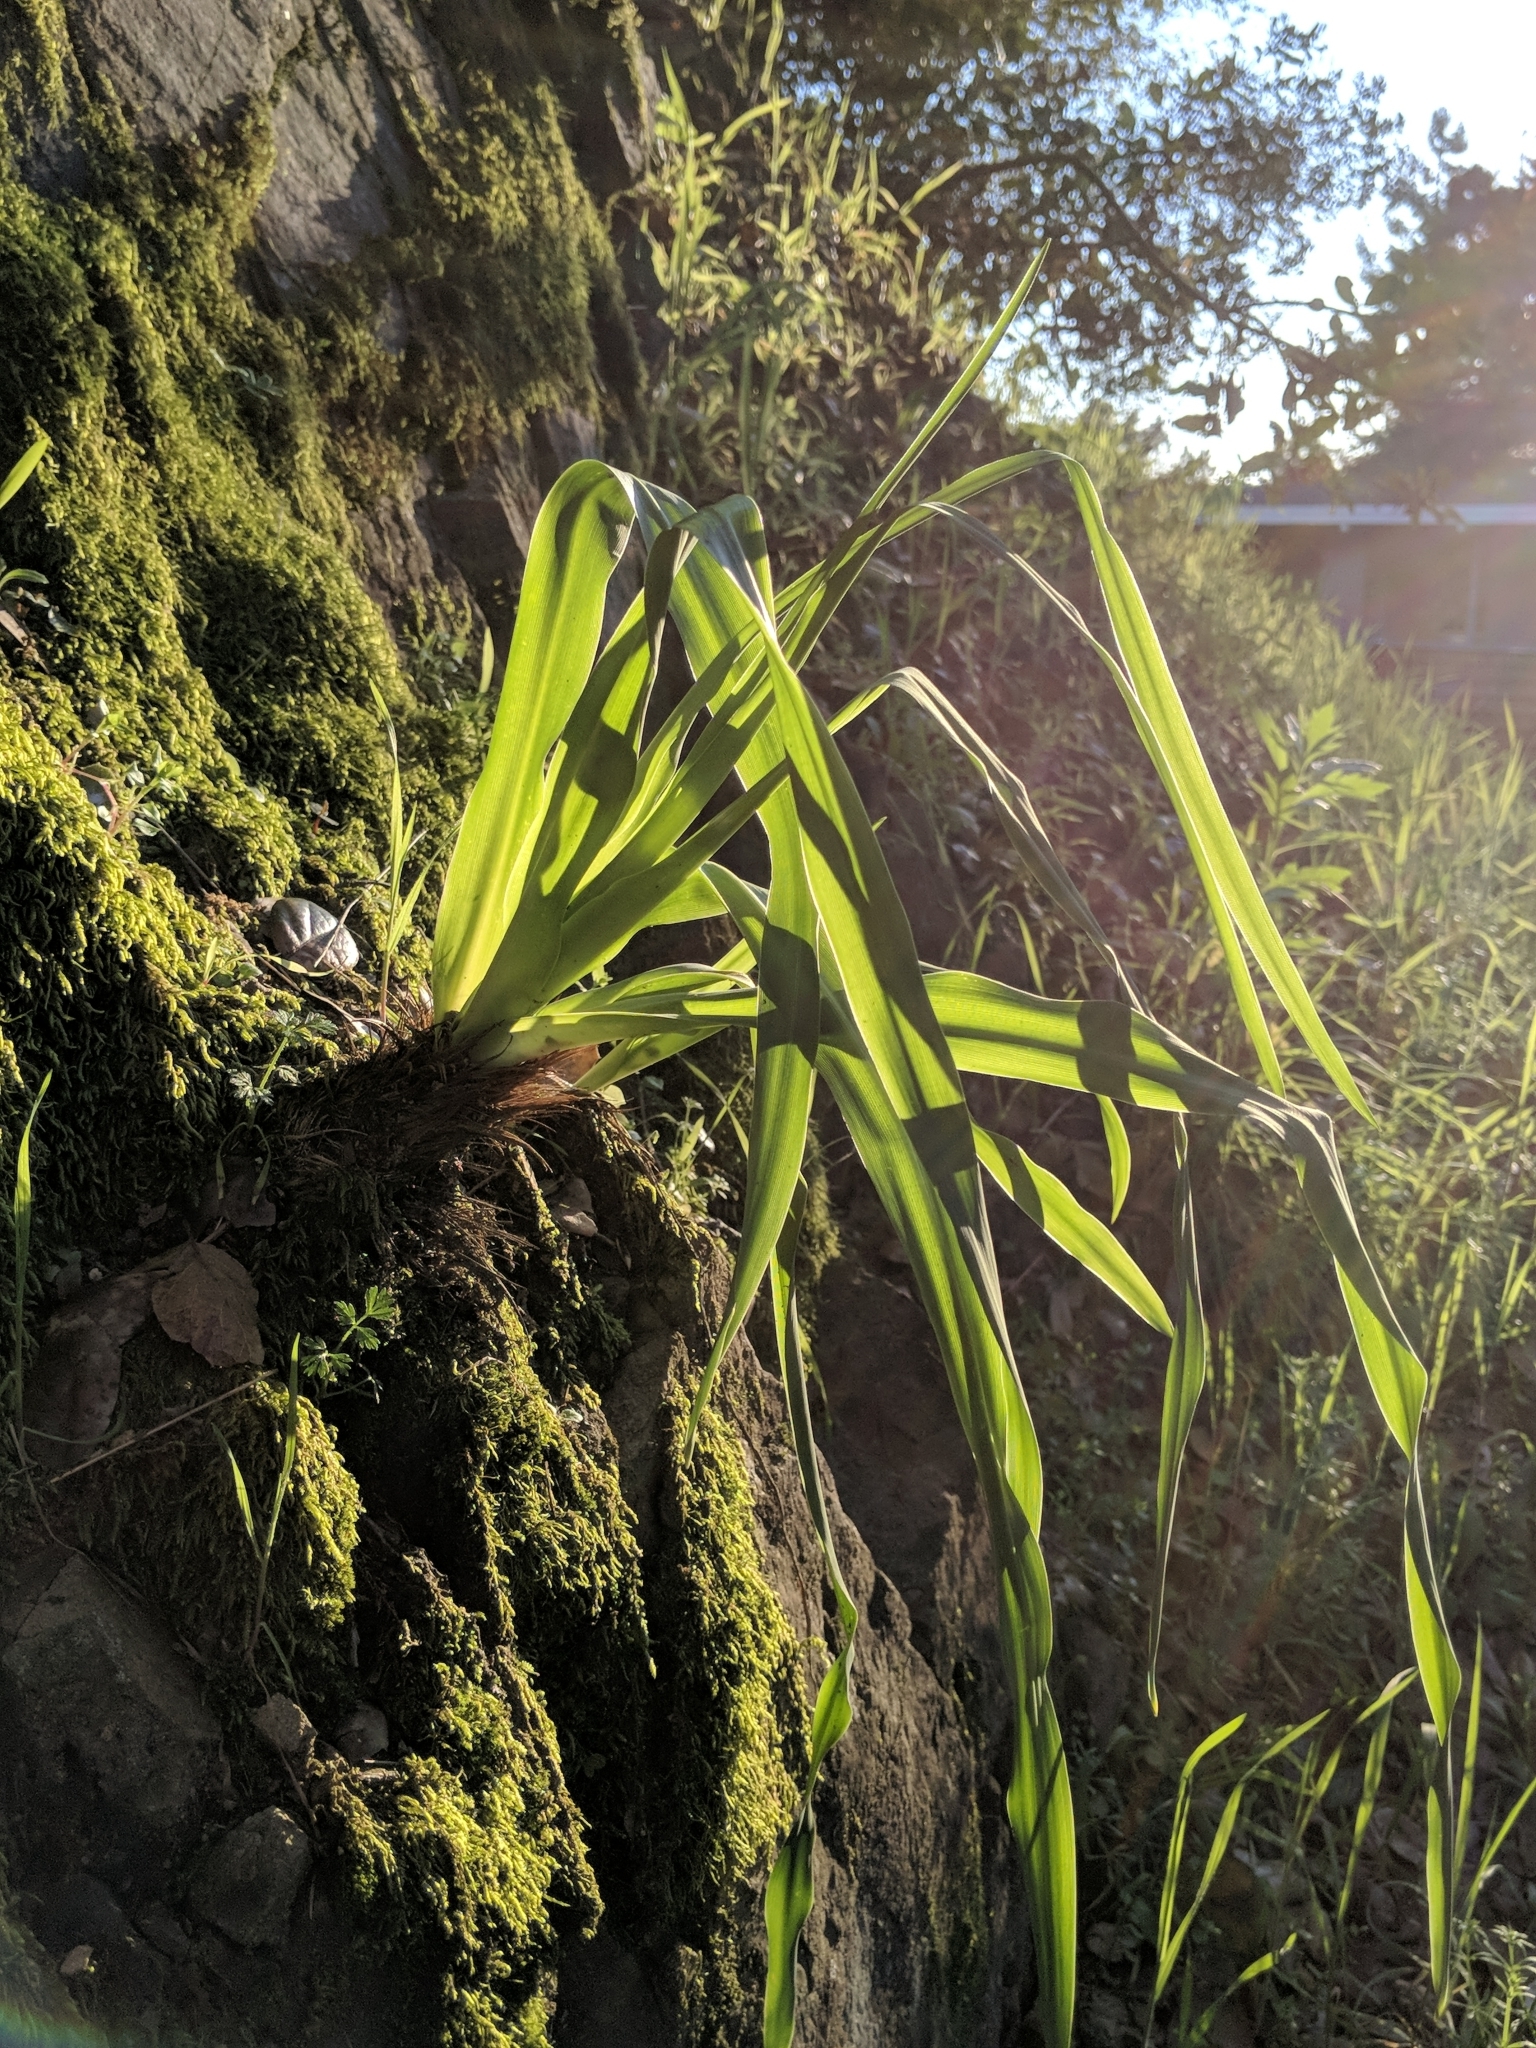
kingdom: Plantae
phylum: Tracheophyta
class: Liliopsida
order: Asparagales
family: Asparagaceae
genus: Chlorogalum
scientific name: Chlorogalum pomeridianum
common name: Amole
